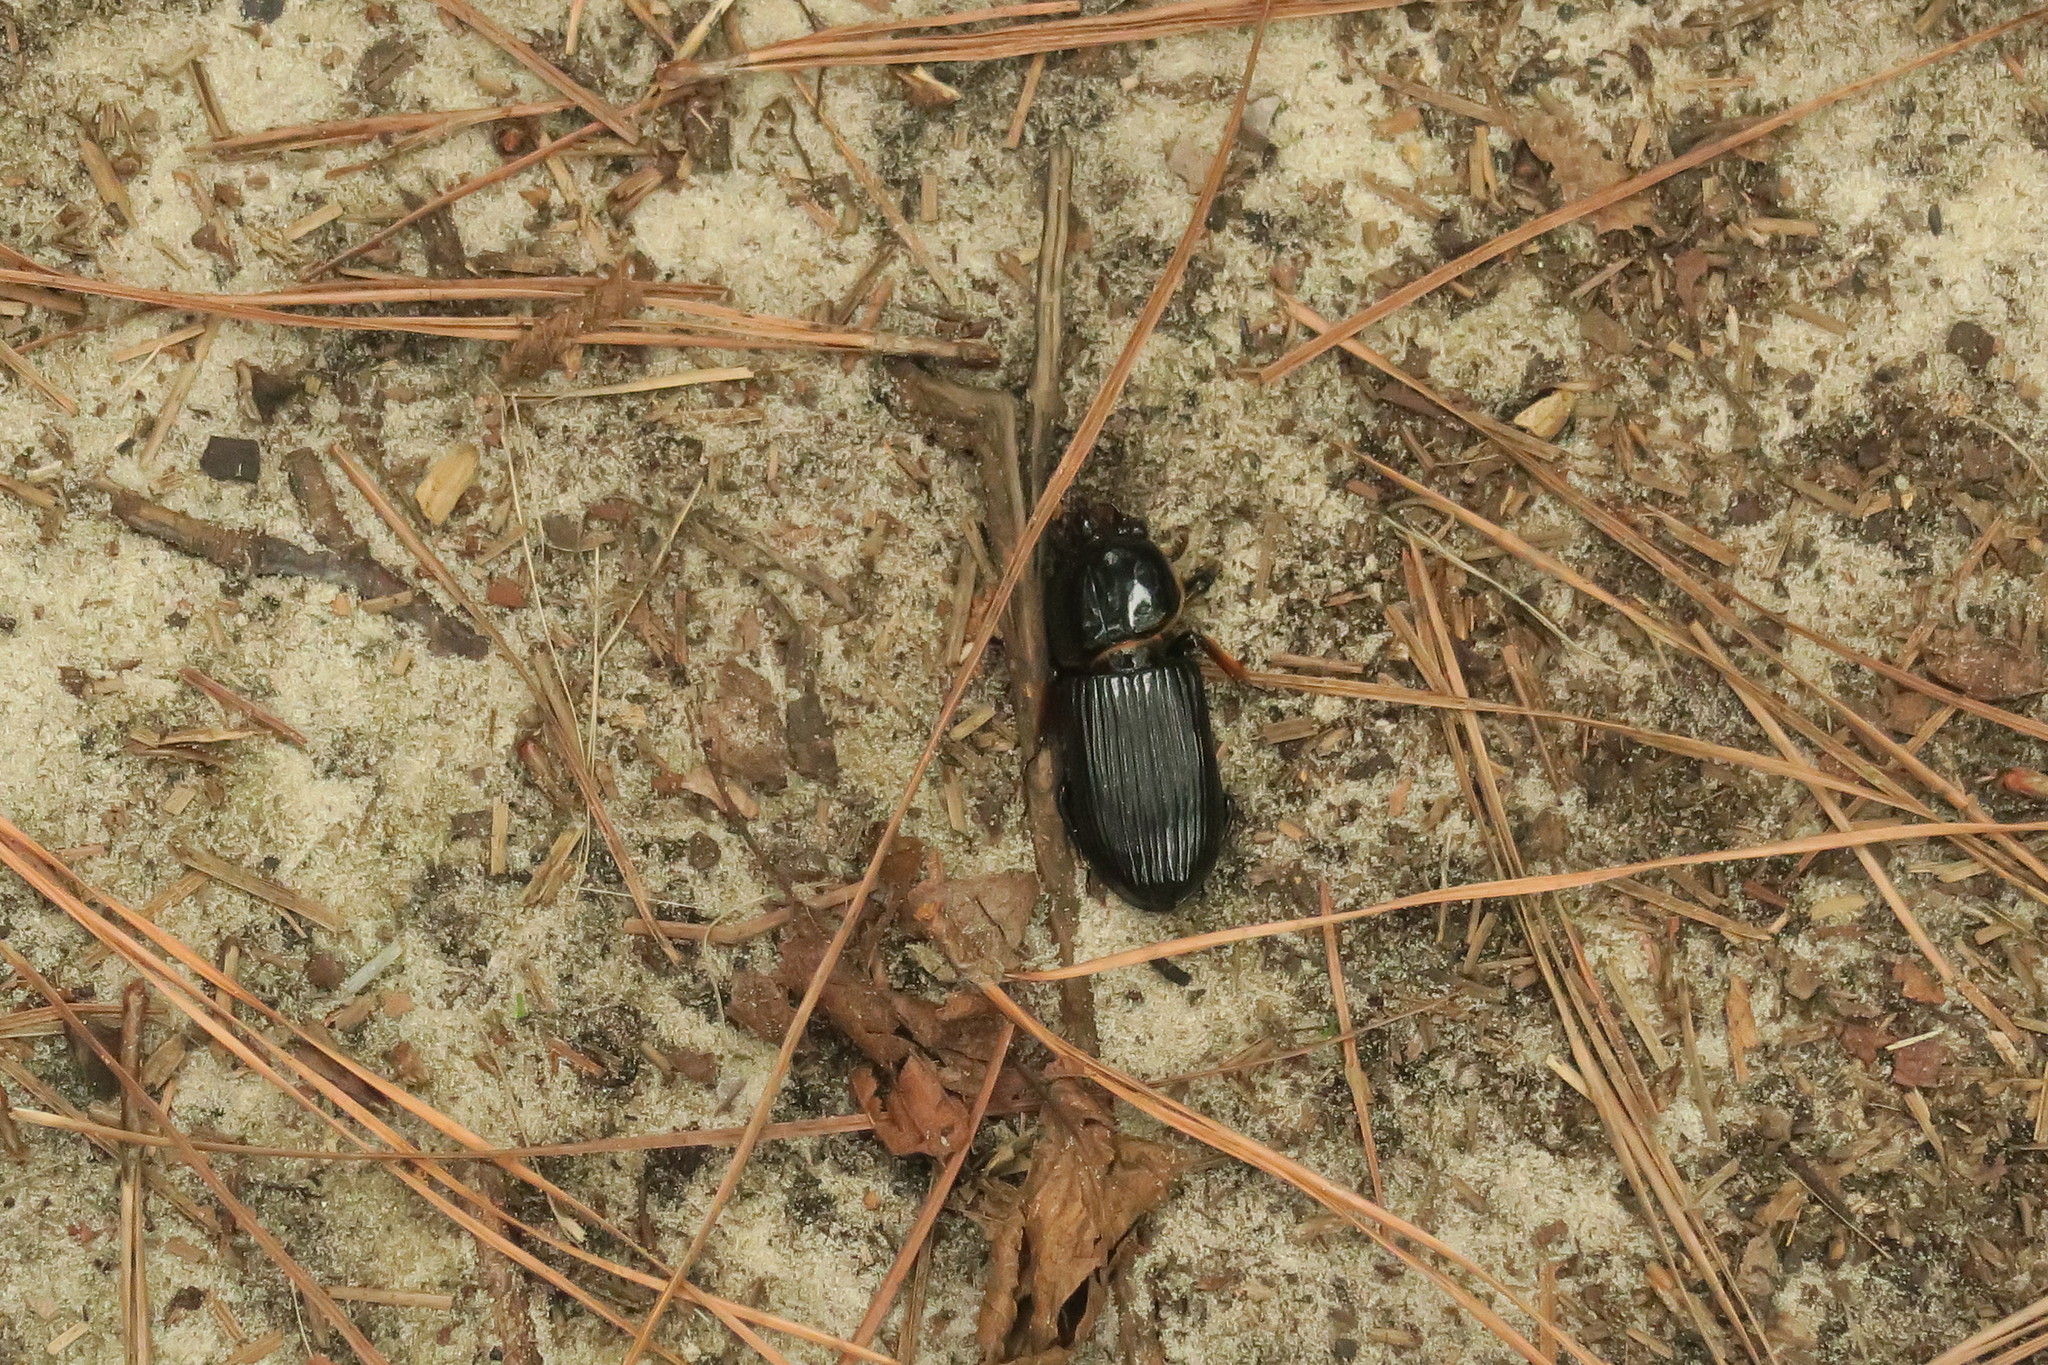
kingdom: Animalia
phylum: Arthropoda
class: Insecta
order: Coleoptera
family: Passalidae
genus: Odontotaenius
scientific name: Odontotaenius disjunctus
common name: Patent leather beetle
